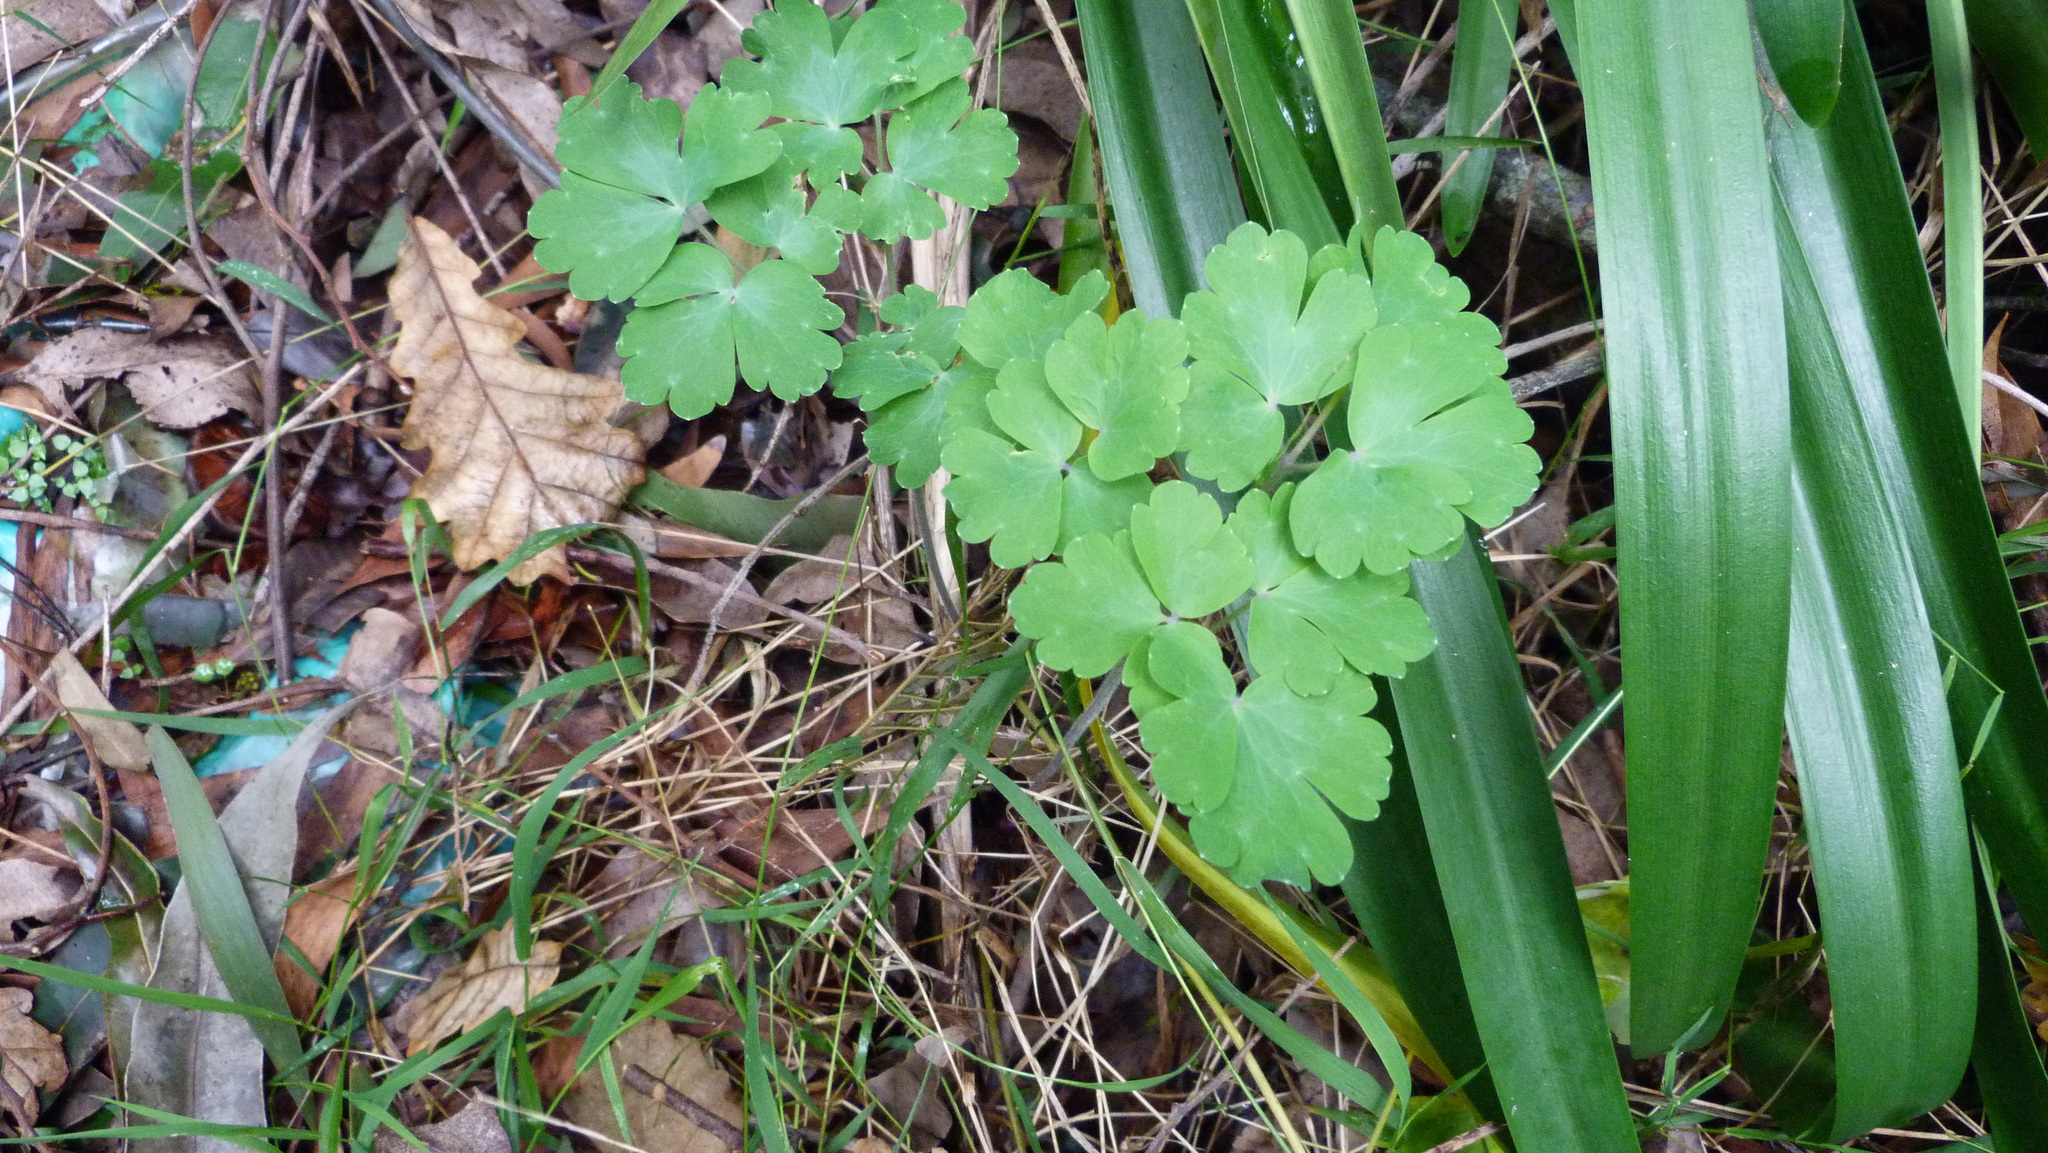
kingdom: Plantae
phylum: Tracheophyta
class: Magnoliopsida
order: Ranunculales
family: Ranunculaceae
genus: Aquilegia
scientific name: Aquilegia vulgaris
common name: Columbine
